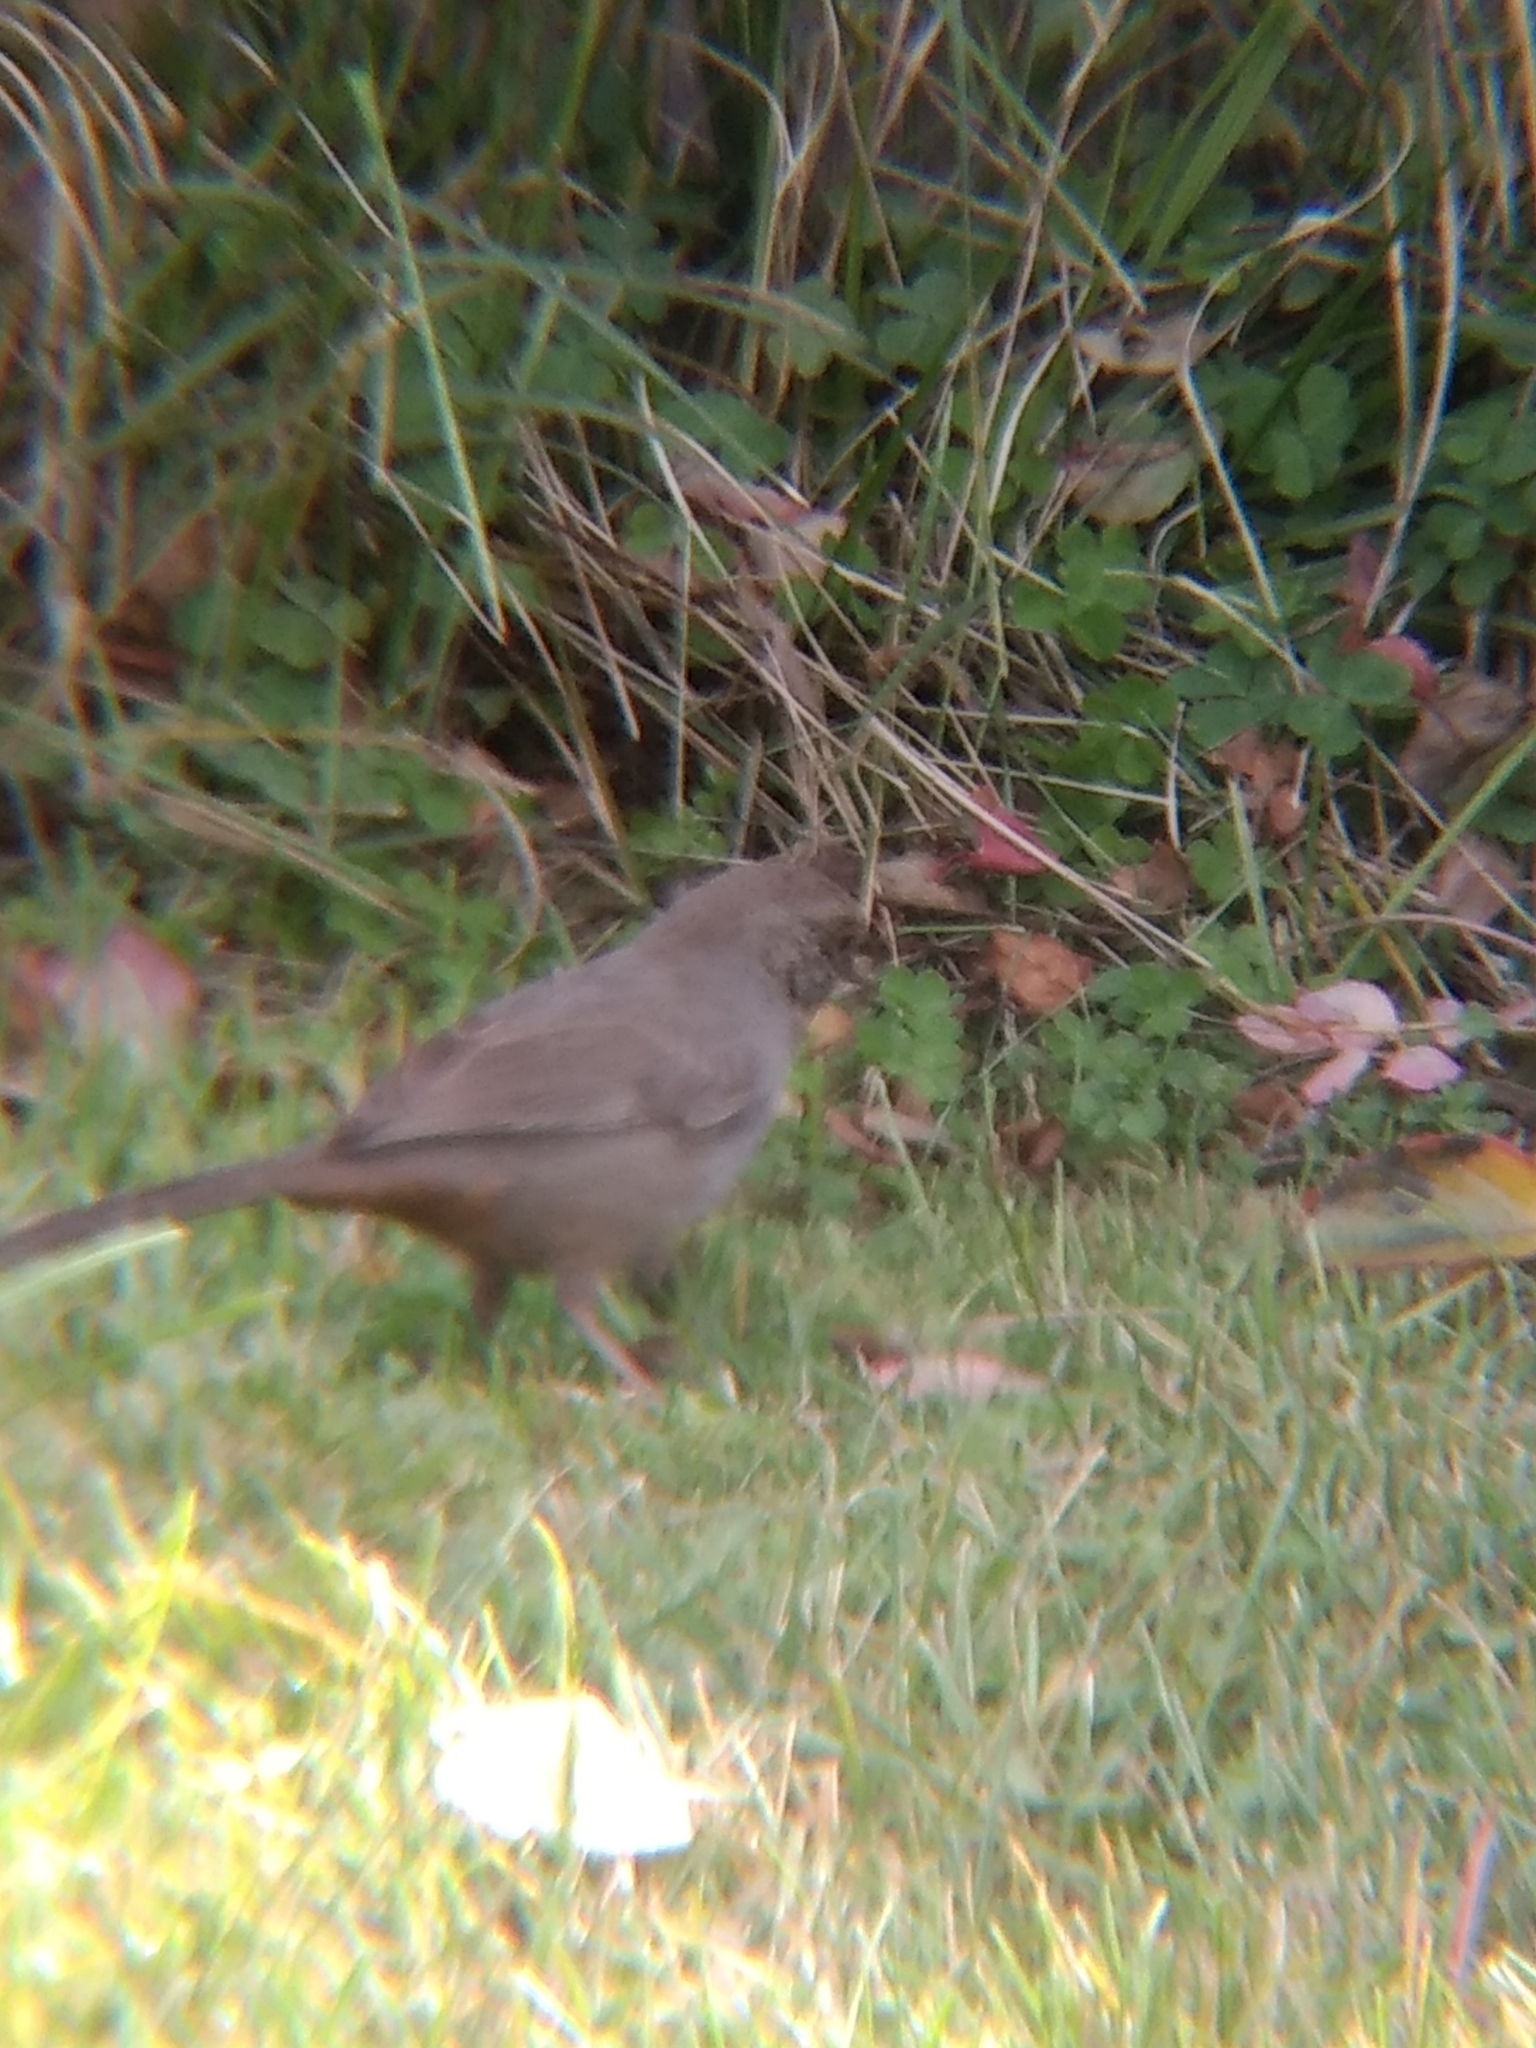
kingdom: Animalia
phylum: Chordata
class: Aves
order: Passeriformes
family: Passerellidae
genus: Melozone
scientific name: Melozone crissalis
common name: California towhee
